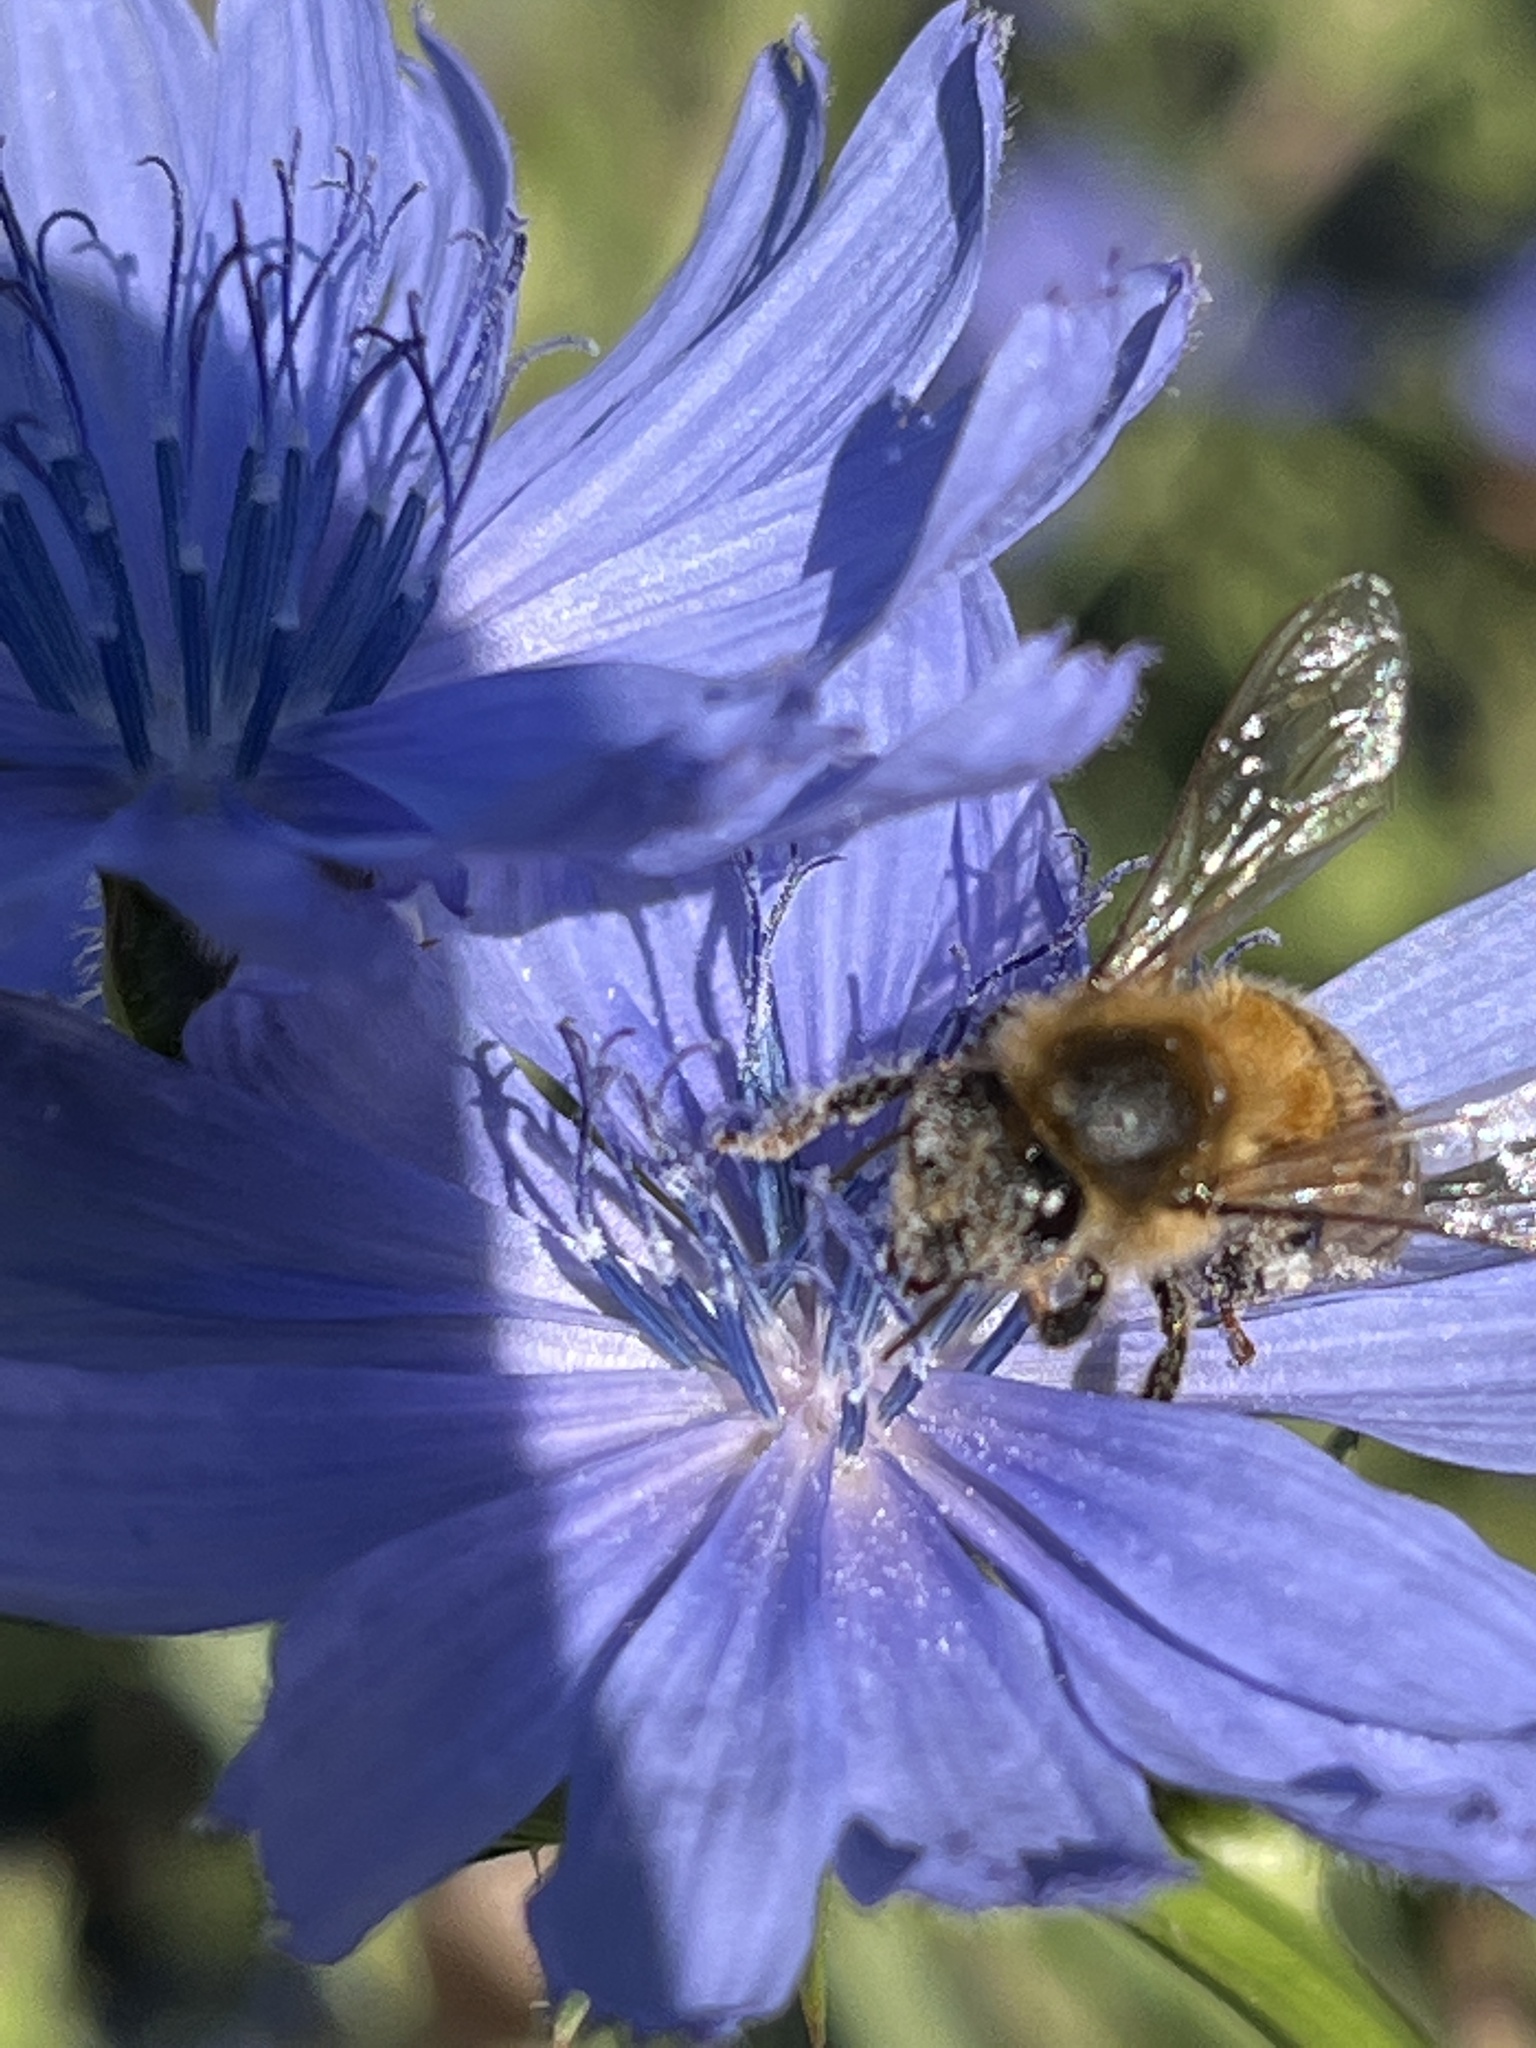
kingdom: Animalia
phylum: Arthropoda
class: Insecta
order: Hymenoptera
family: Apidae
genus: Apis
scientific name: Apis mellifera
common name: Honey bee
